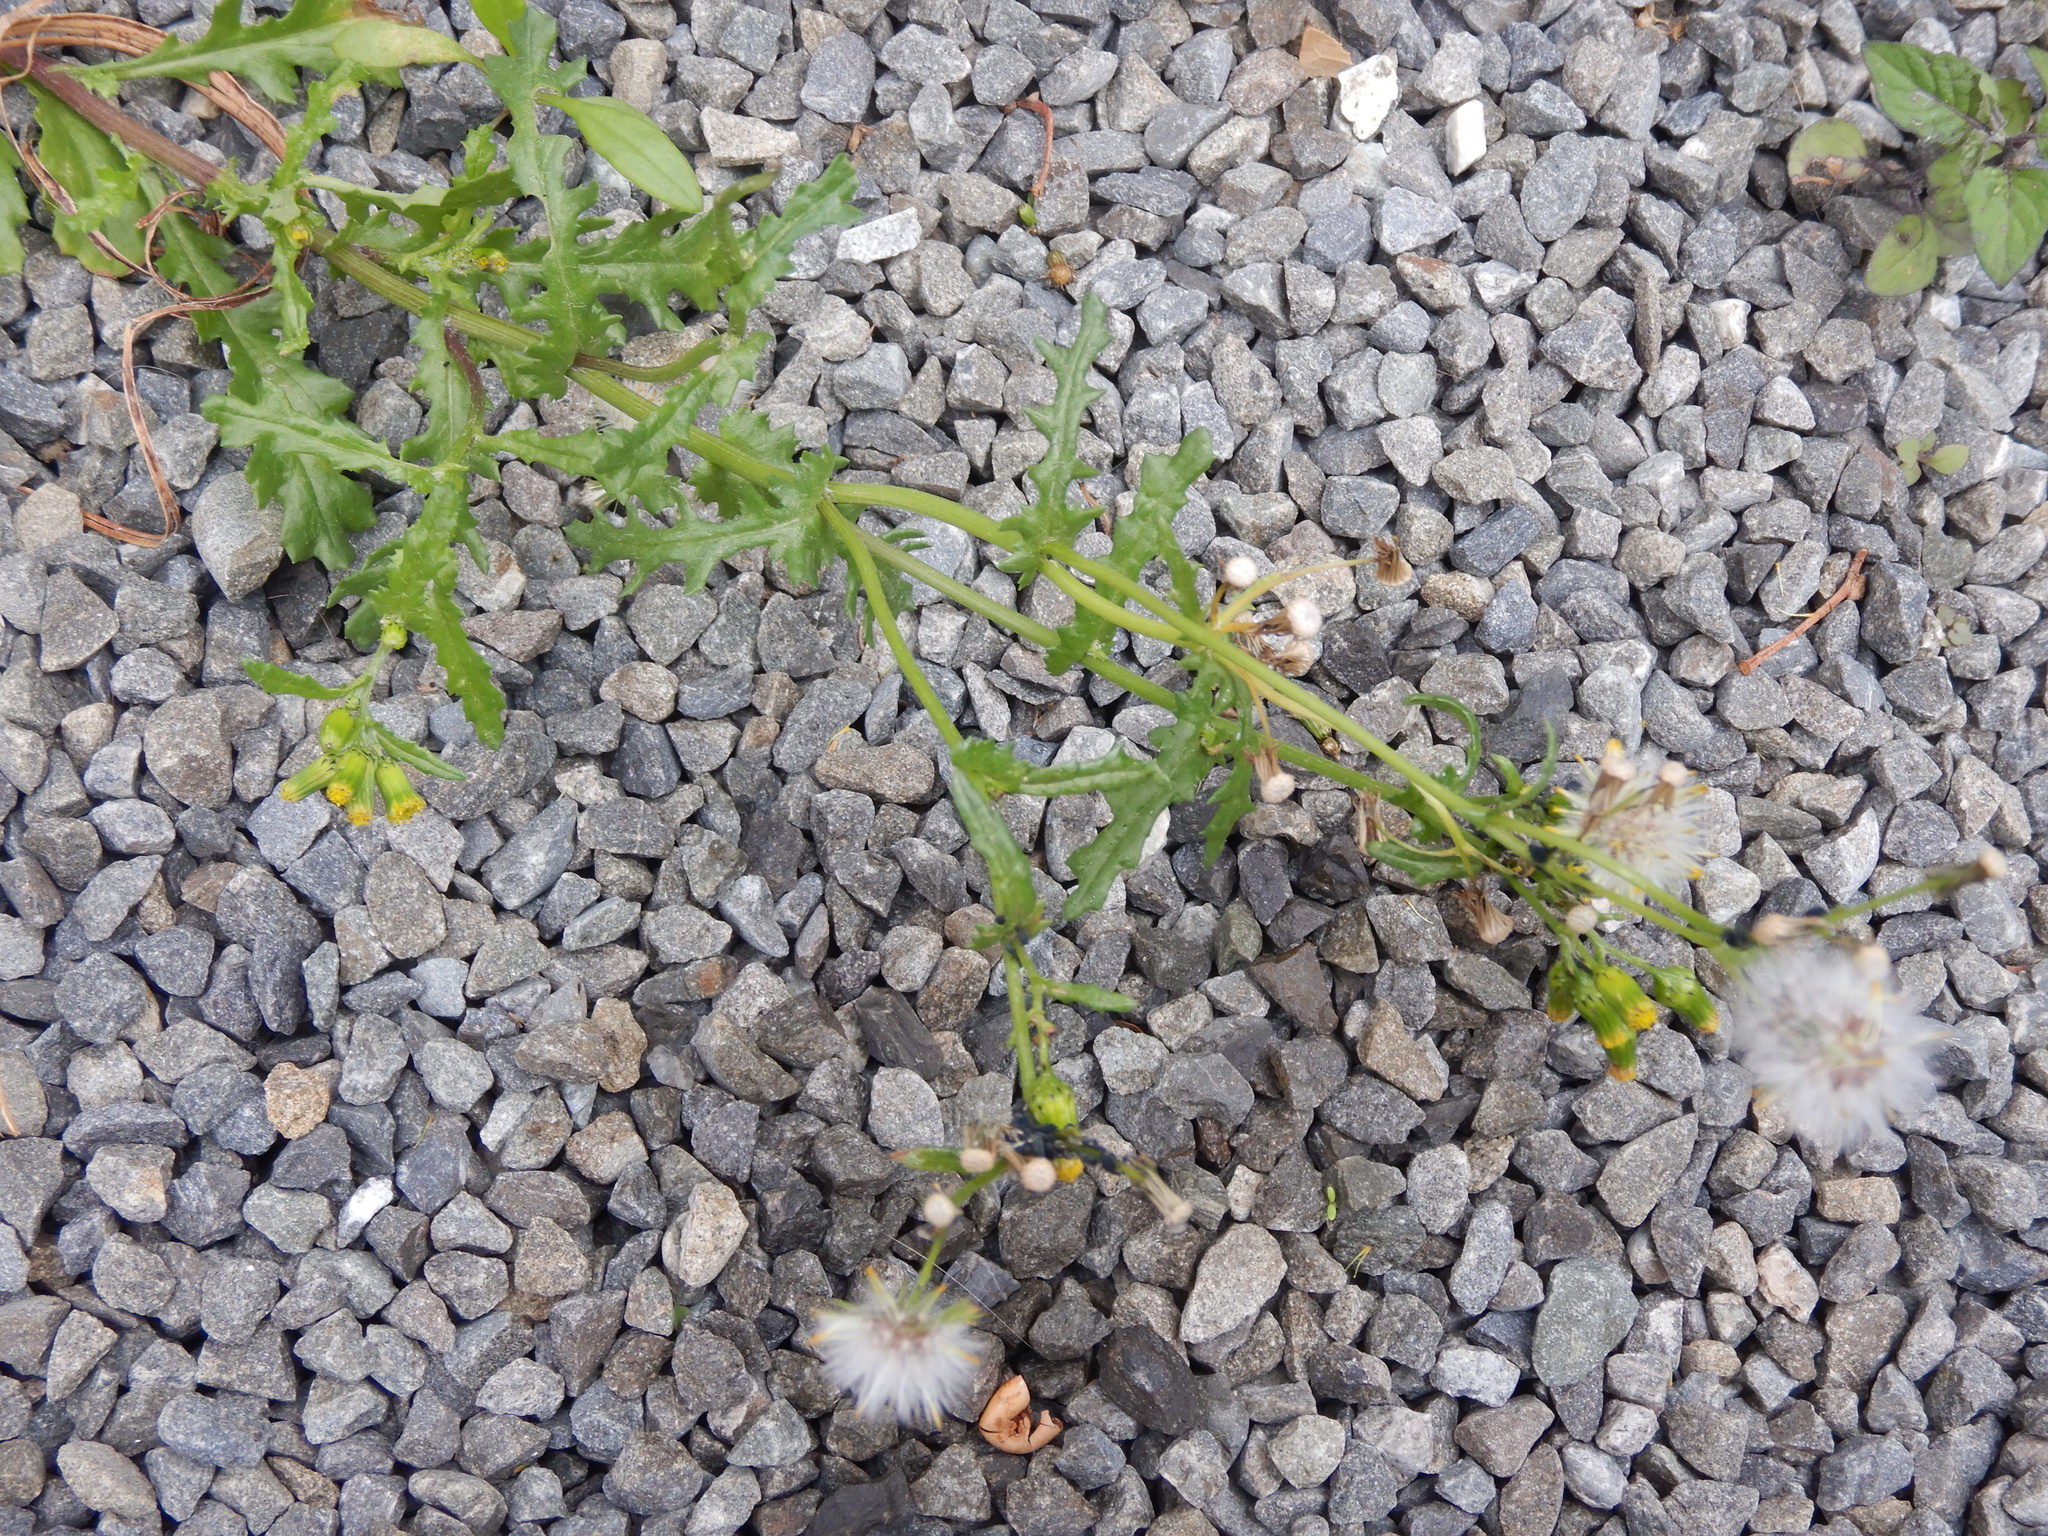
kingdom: Plantae
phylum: Tracheophyta
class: Magnoliopsida
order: Asterales
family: Asteraceae
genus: Senecio
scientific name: Senecio vulgaris
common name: Old-man-in-the-spring
